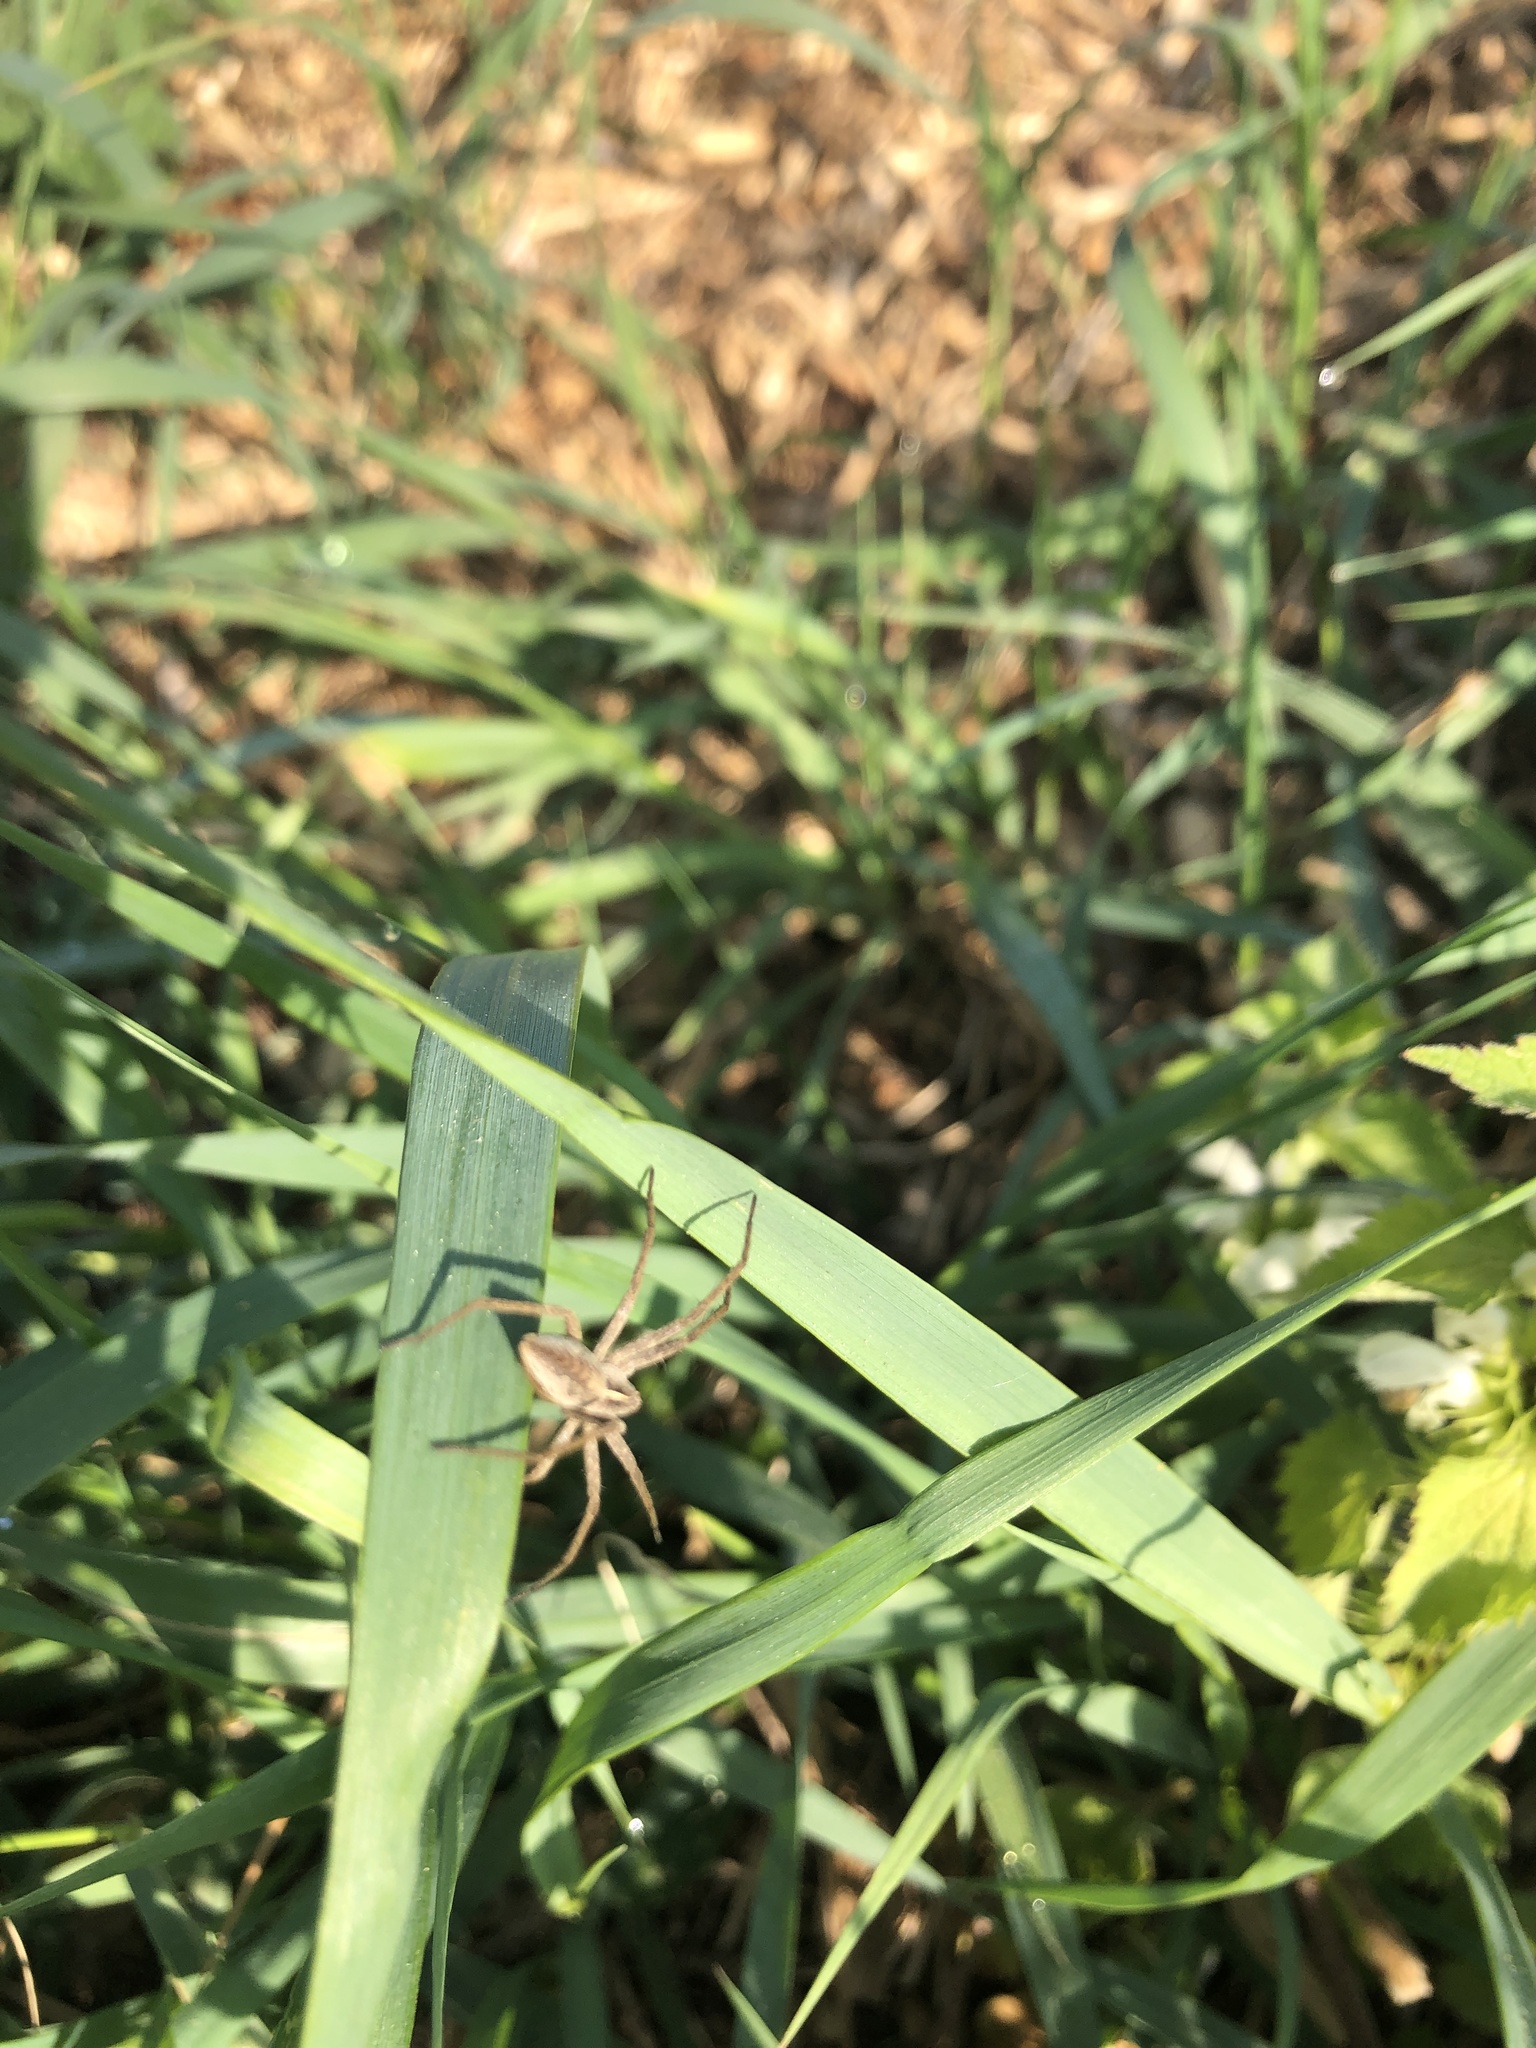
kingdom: Animalia
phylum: Arthropoda
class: Arachnida
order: Araneae
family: Pisauridae
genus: Pisaura
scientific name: Pisaura mirabilis
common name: Tent spider
